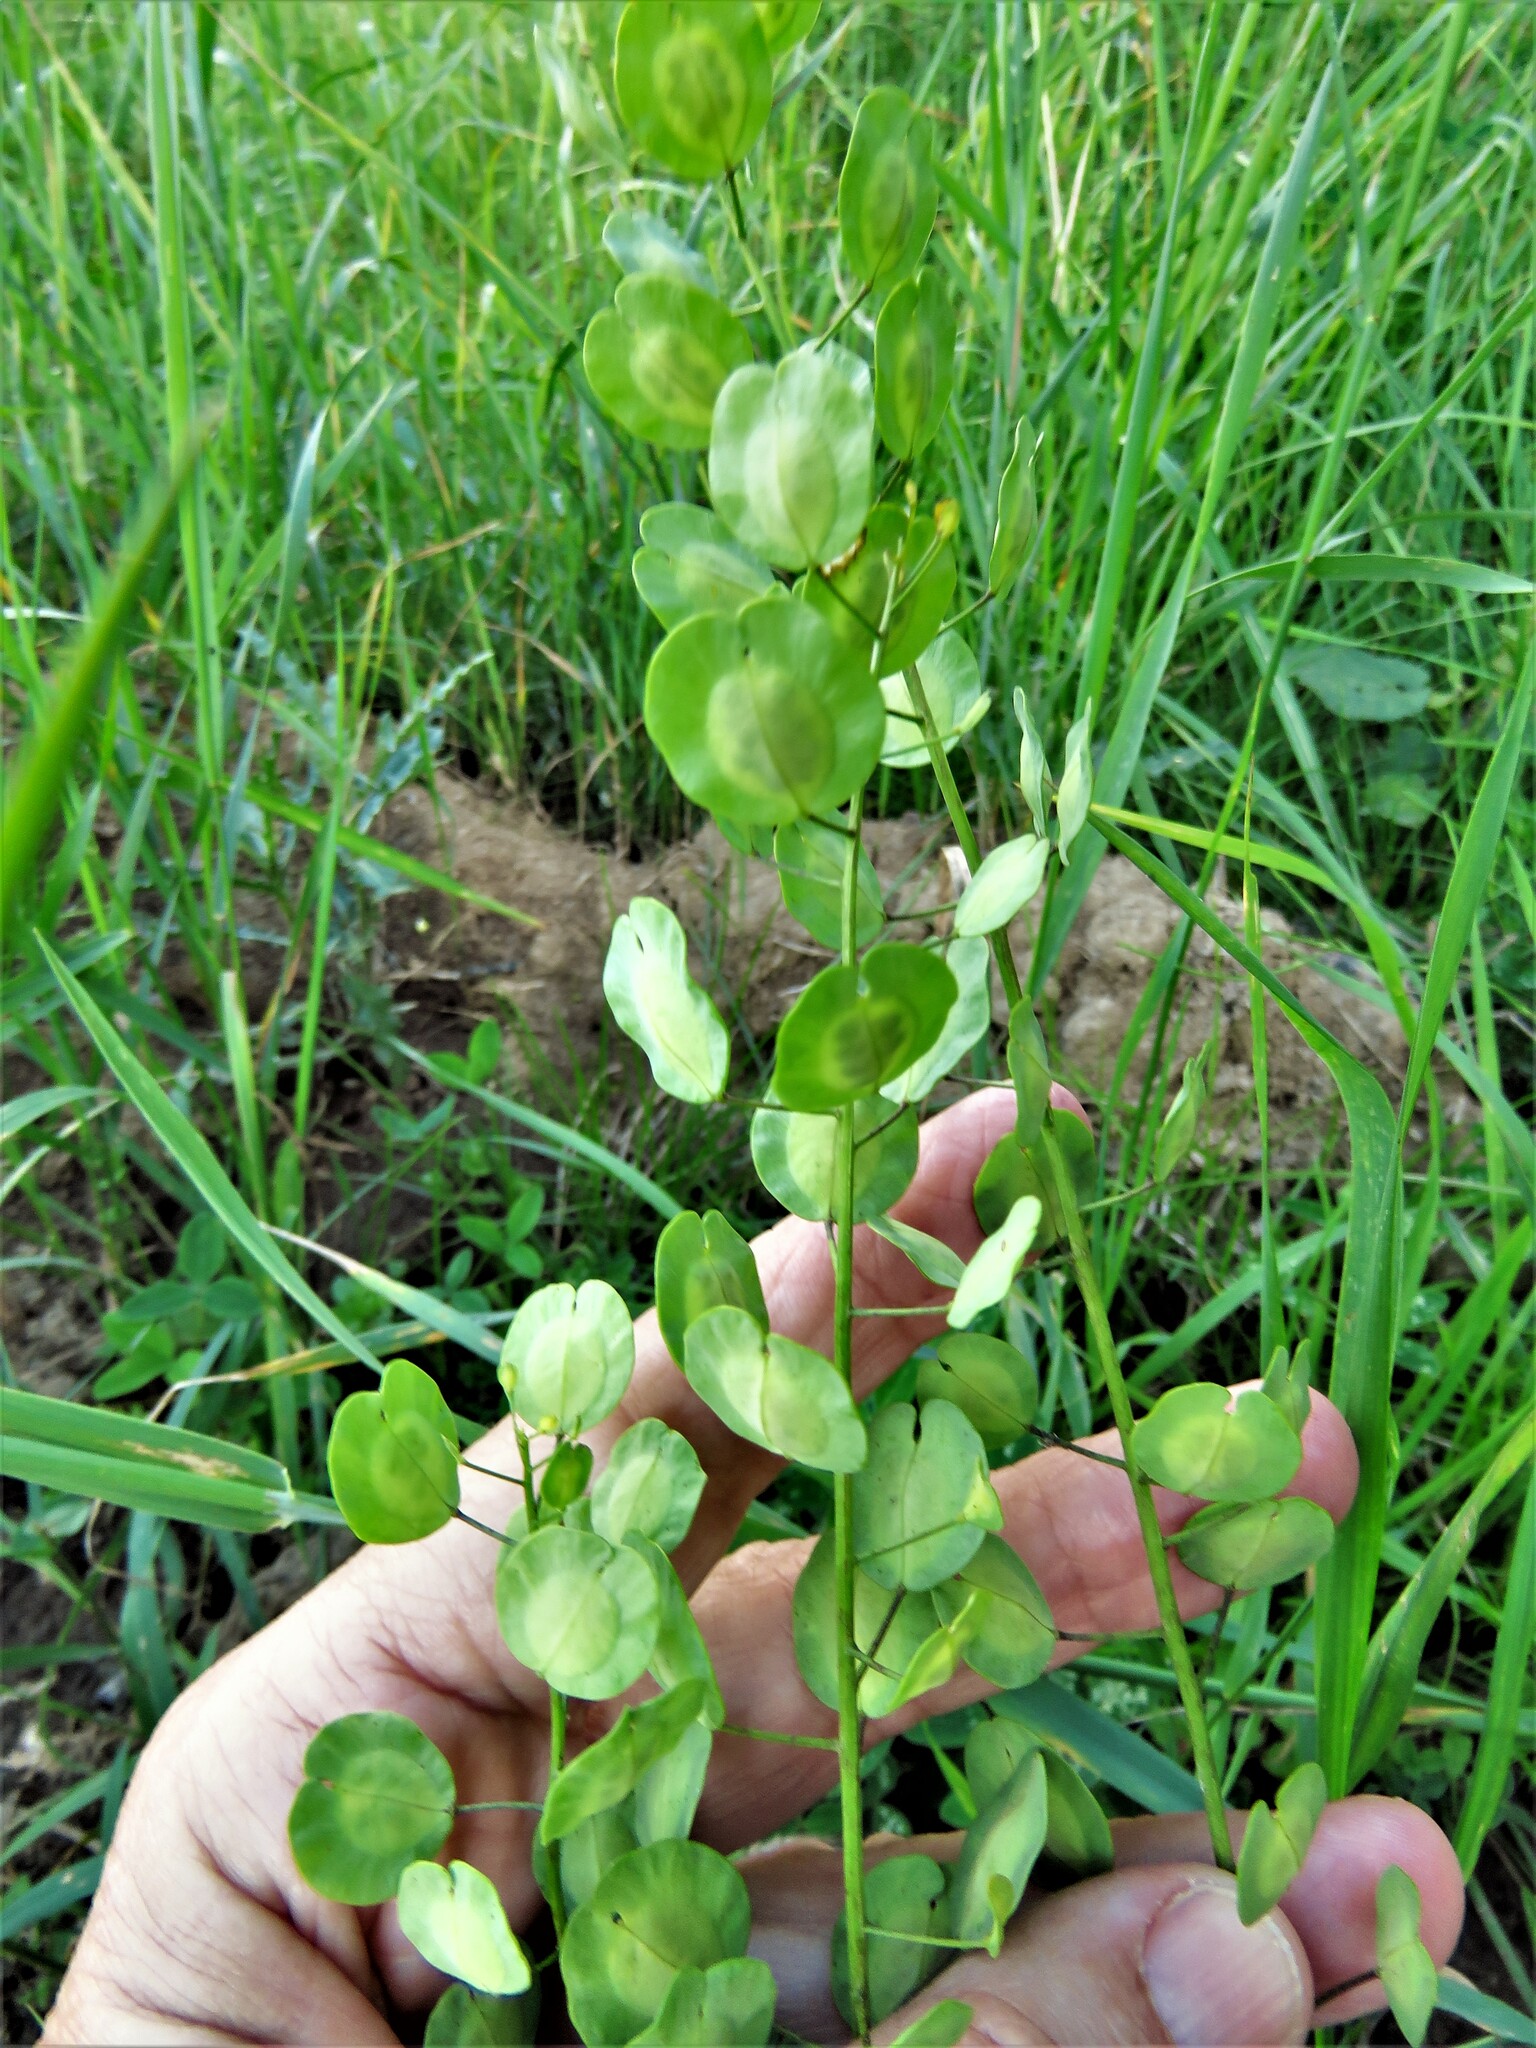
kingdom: Plantae
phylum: Tracheophyta
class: Magnoliopsida
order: Brassicales
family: Brassicaceae
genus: Thlaspi
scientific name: Thlaspi arvense
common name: Field pennycress
